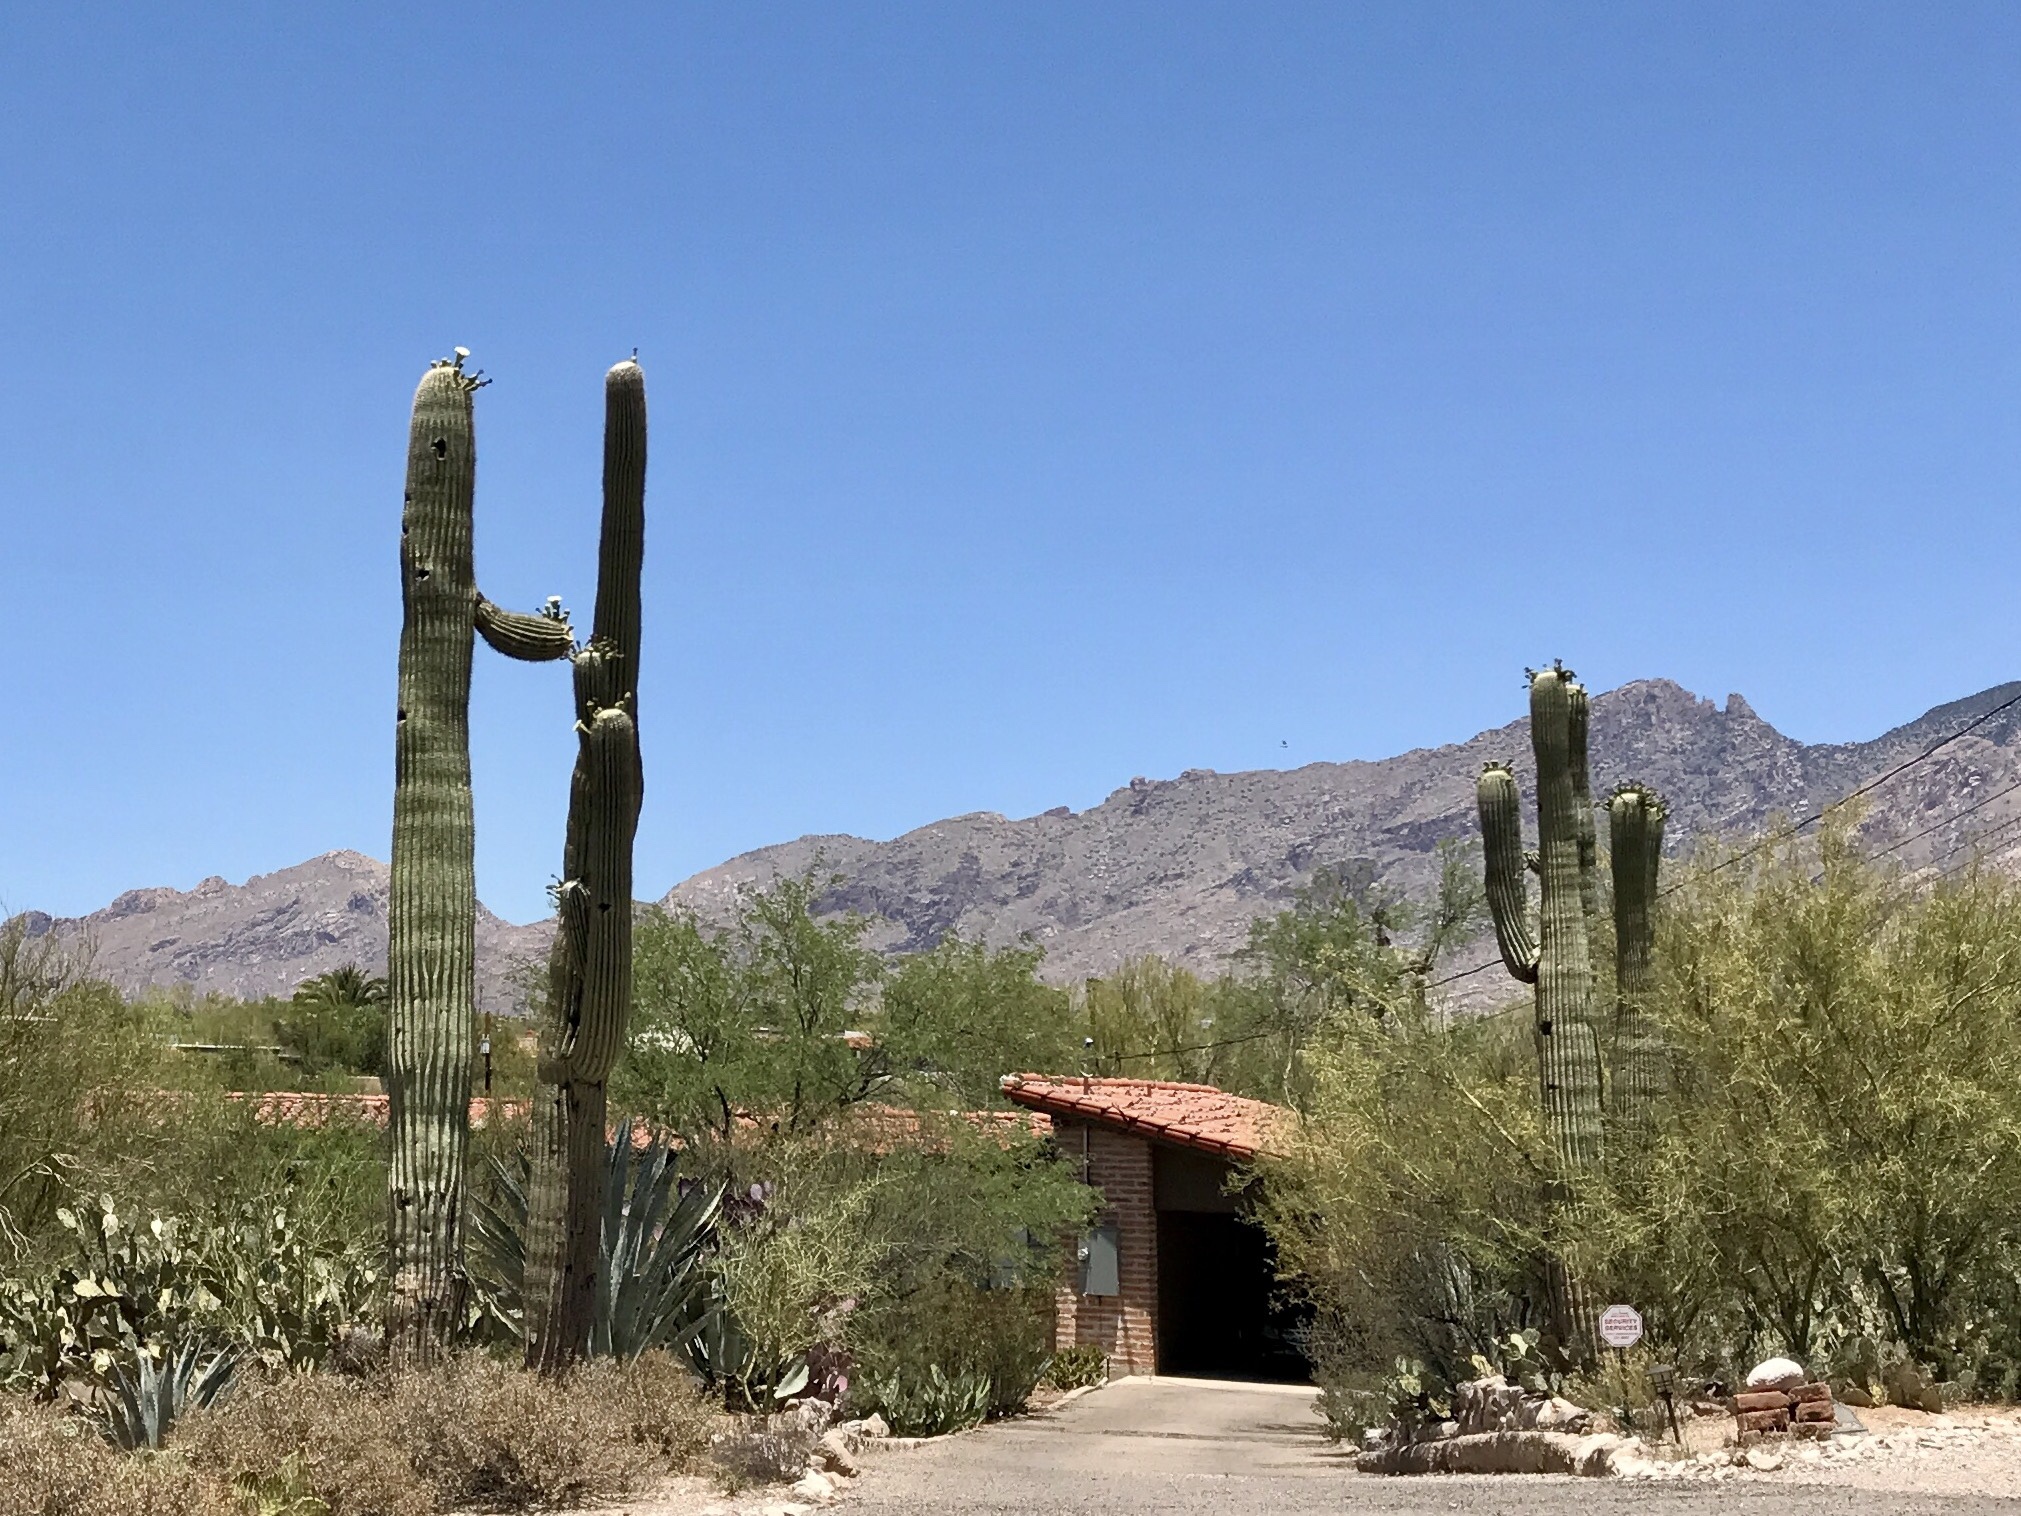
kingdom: Plantae
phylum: Tracheophyta
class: Magnoliopsida
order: Caryophyllales
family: Cactaceae
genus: Carnegiea
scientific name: Carnegiea gigantea
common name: Saguaro
